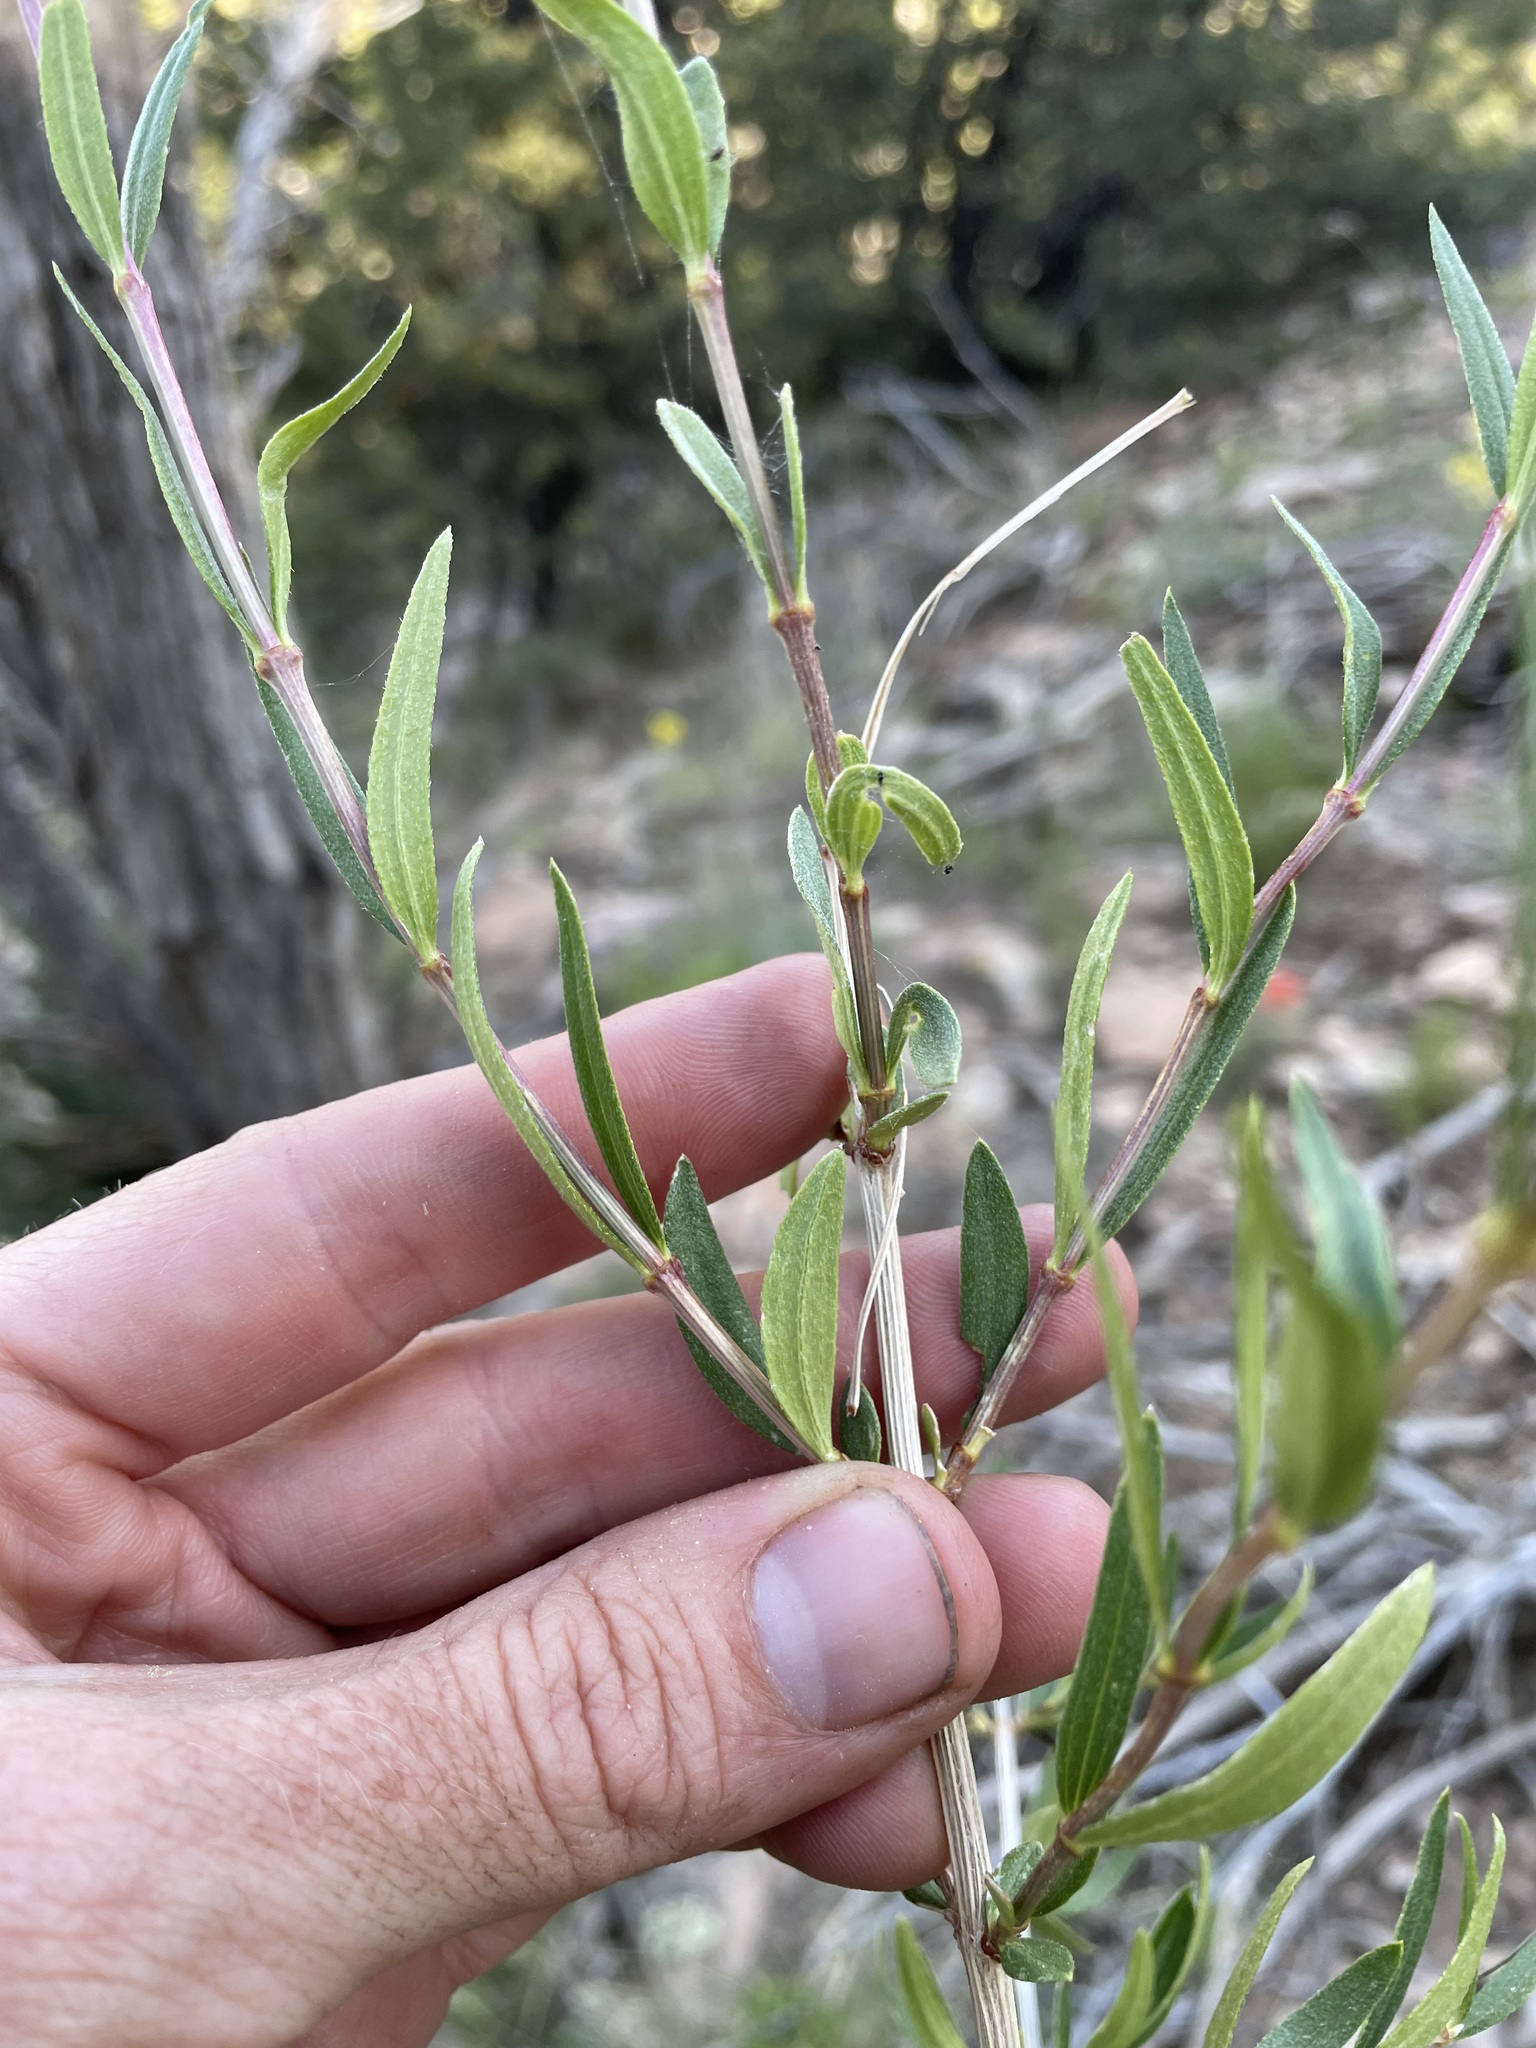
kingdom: Plantae
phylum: Tracheophyta
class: Magnoliopsida
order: Cornales
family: Hydrangeaceae
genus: Fendlera
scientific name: Fendlera rupicola
